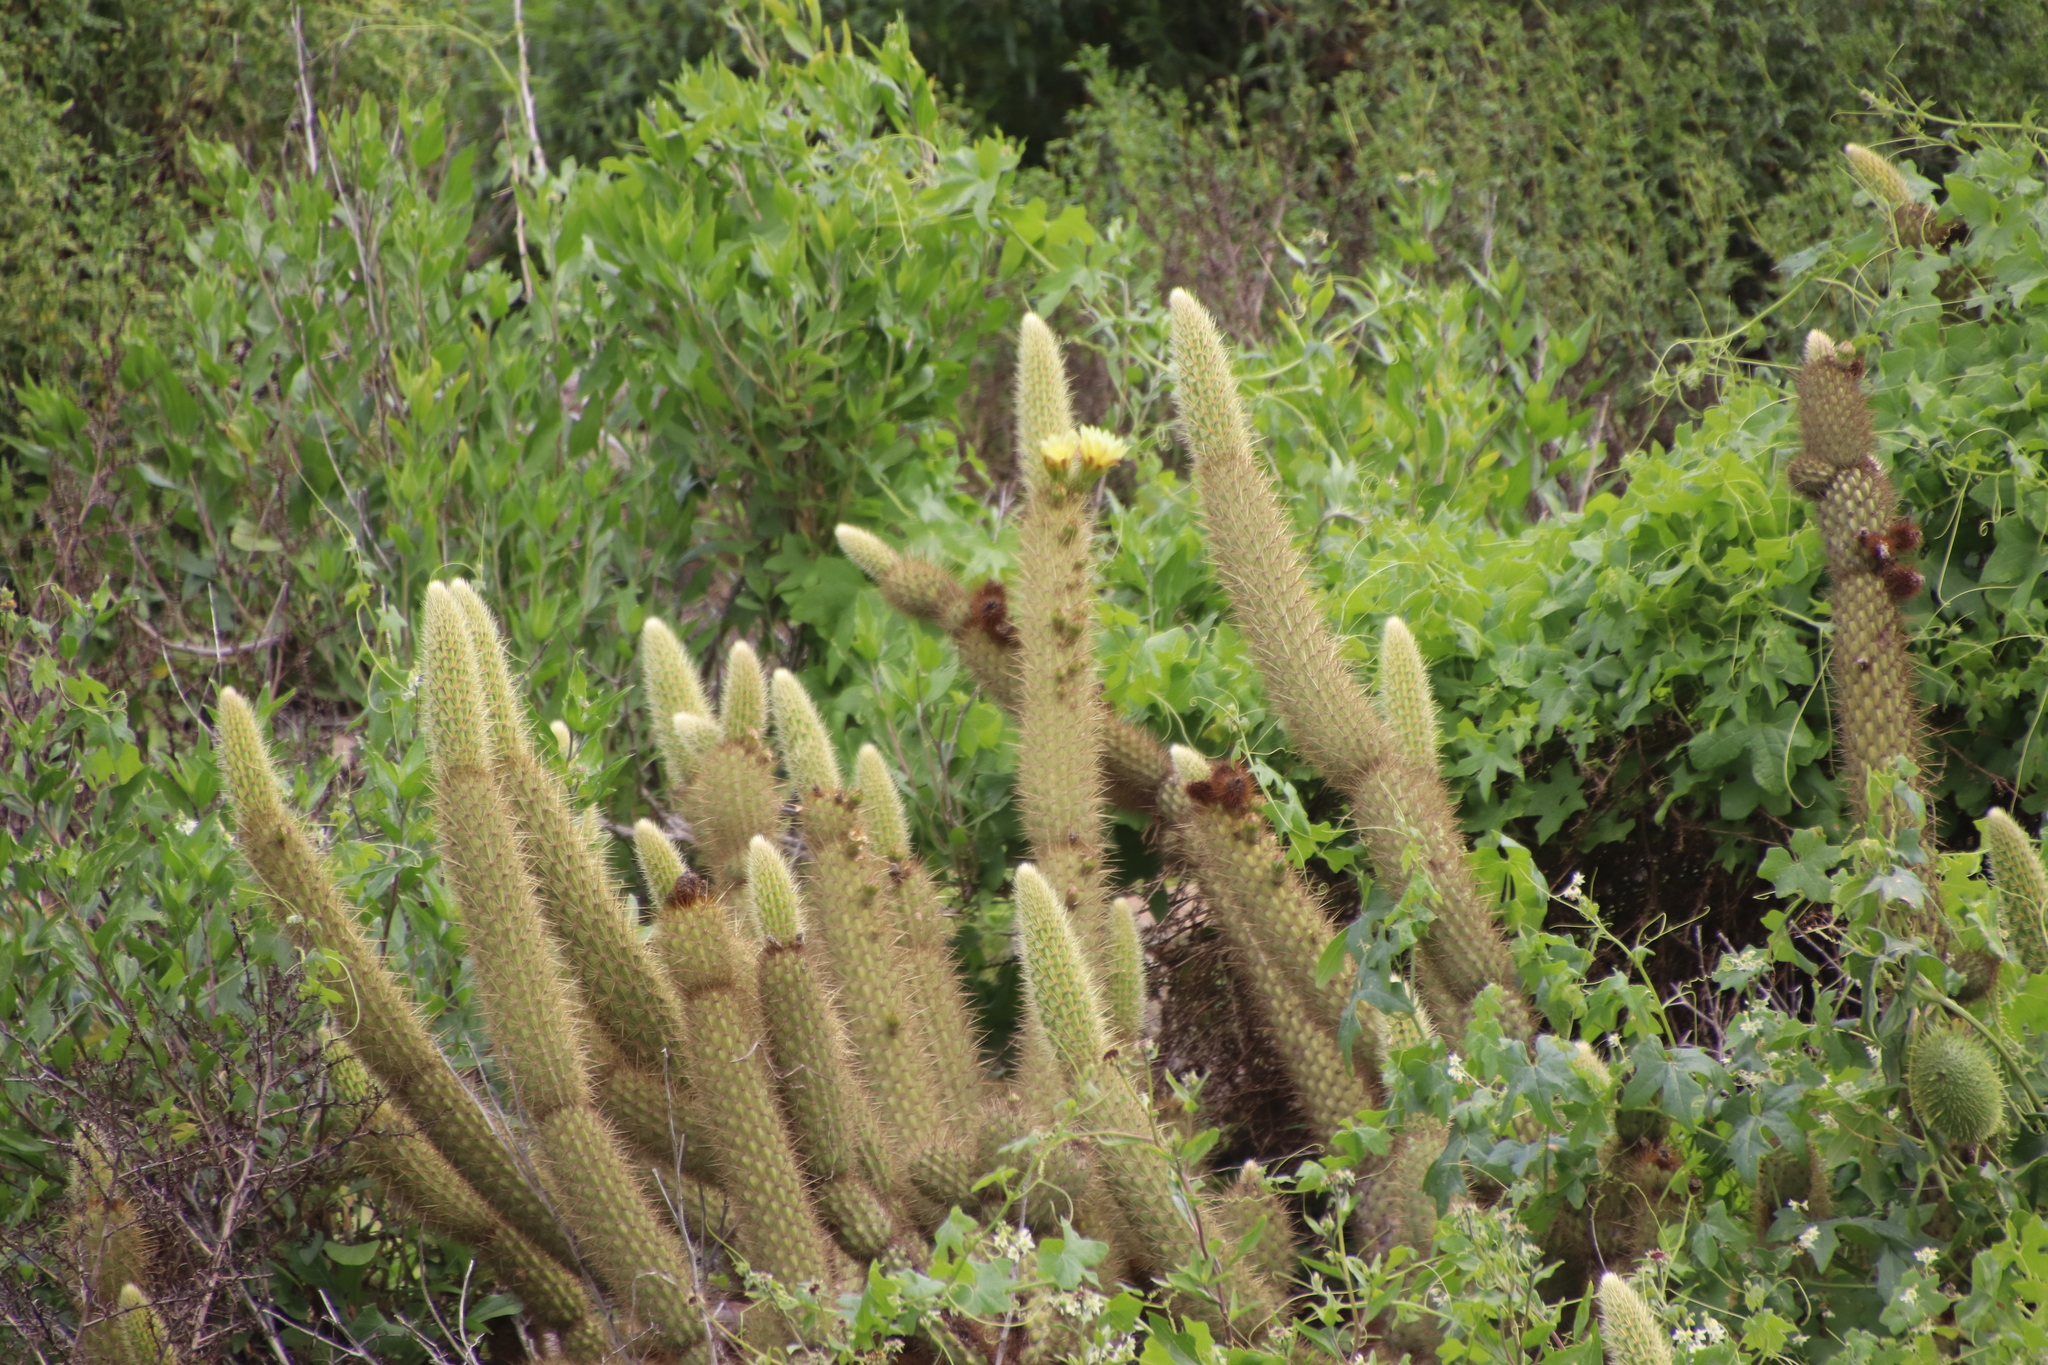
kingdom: Plantae
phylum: Tracheophyta
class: Magnoliopsida
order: Caryophyllales
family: Cactaceae
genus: Bergerocactus
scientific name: Bergerocactus emoryi
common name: Golden snakecactus
